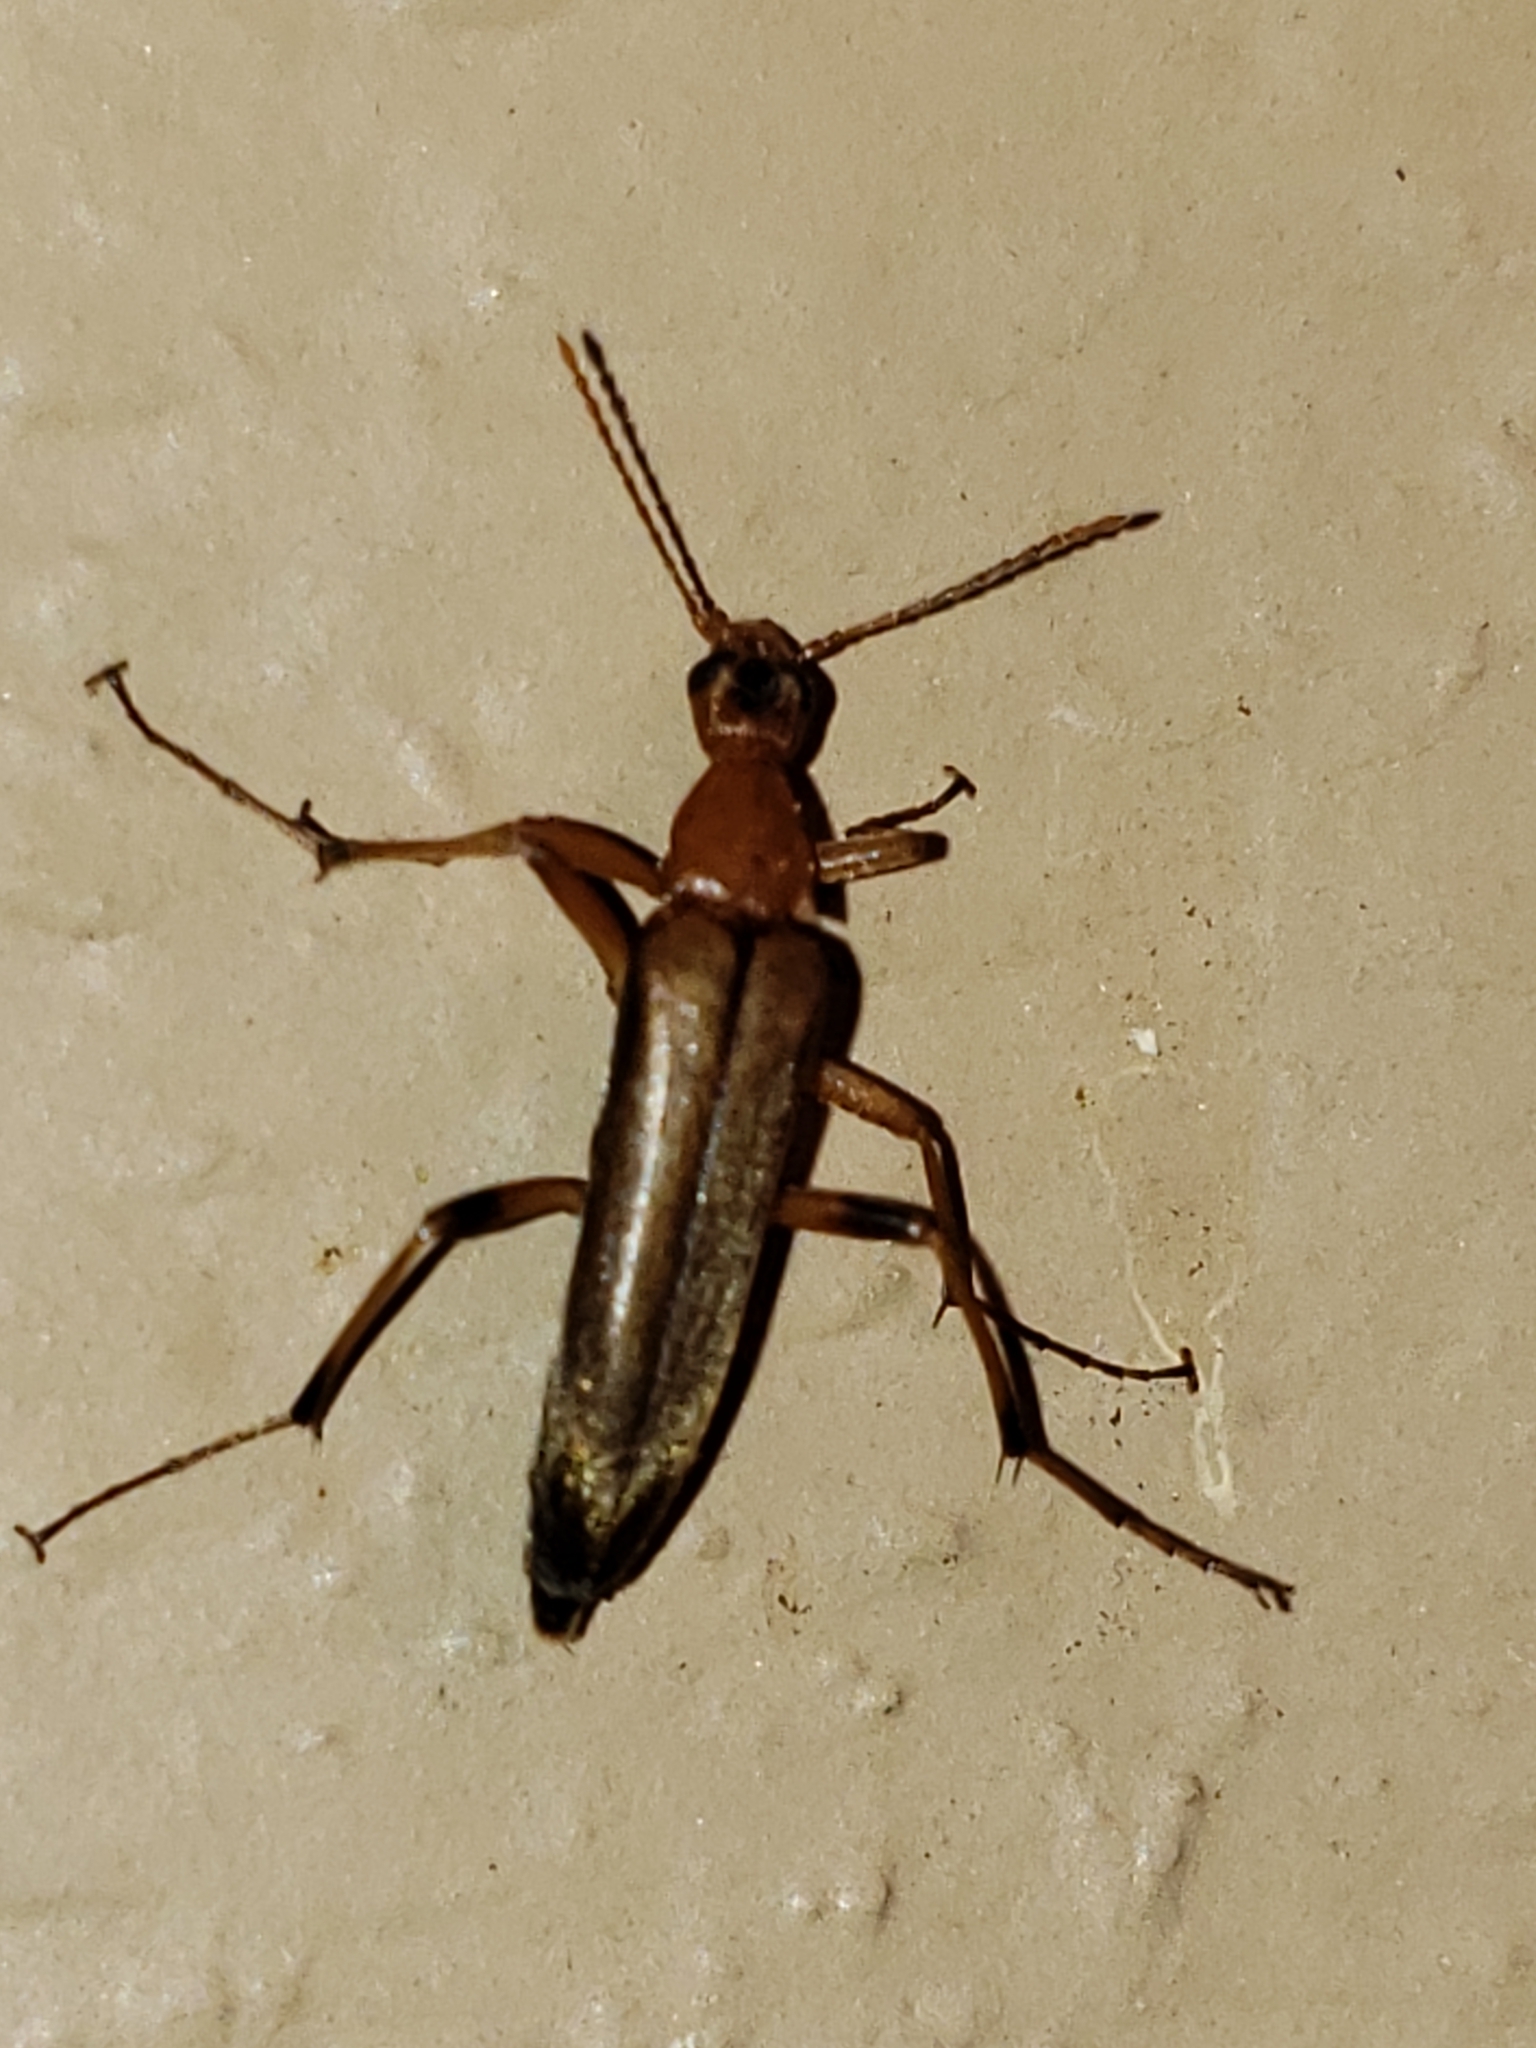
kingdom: Animalia
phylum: Arthropoda
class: Insecta
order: Coleoptera
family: Stenotrachelidae
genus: Cephaloon
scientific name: Cephaloon lepturides
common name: False leptura beetle
